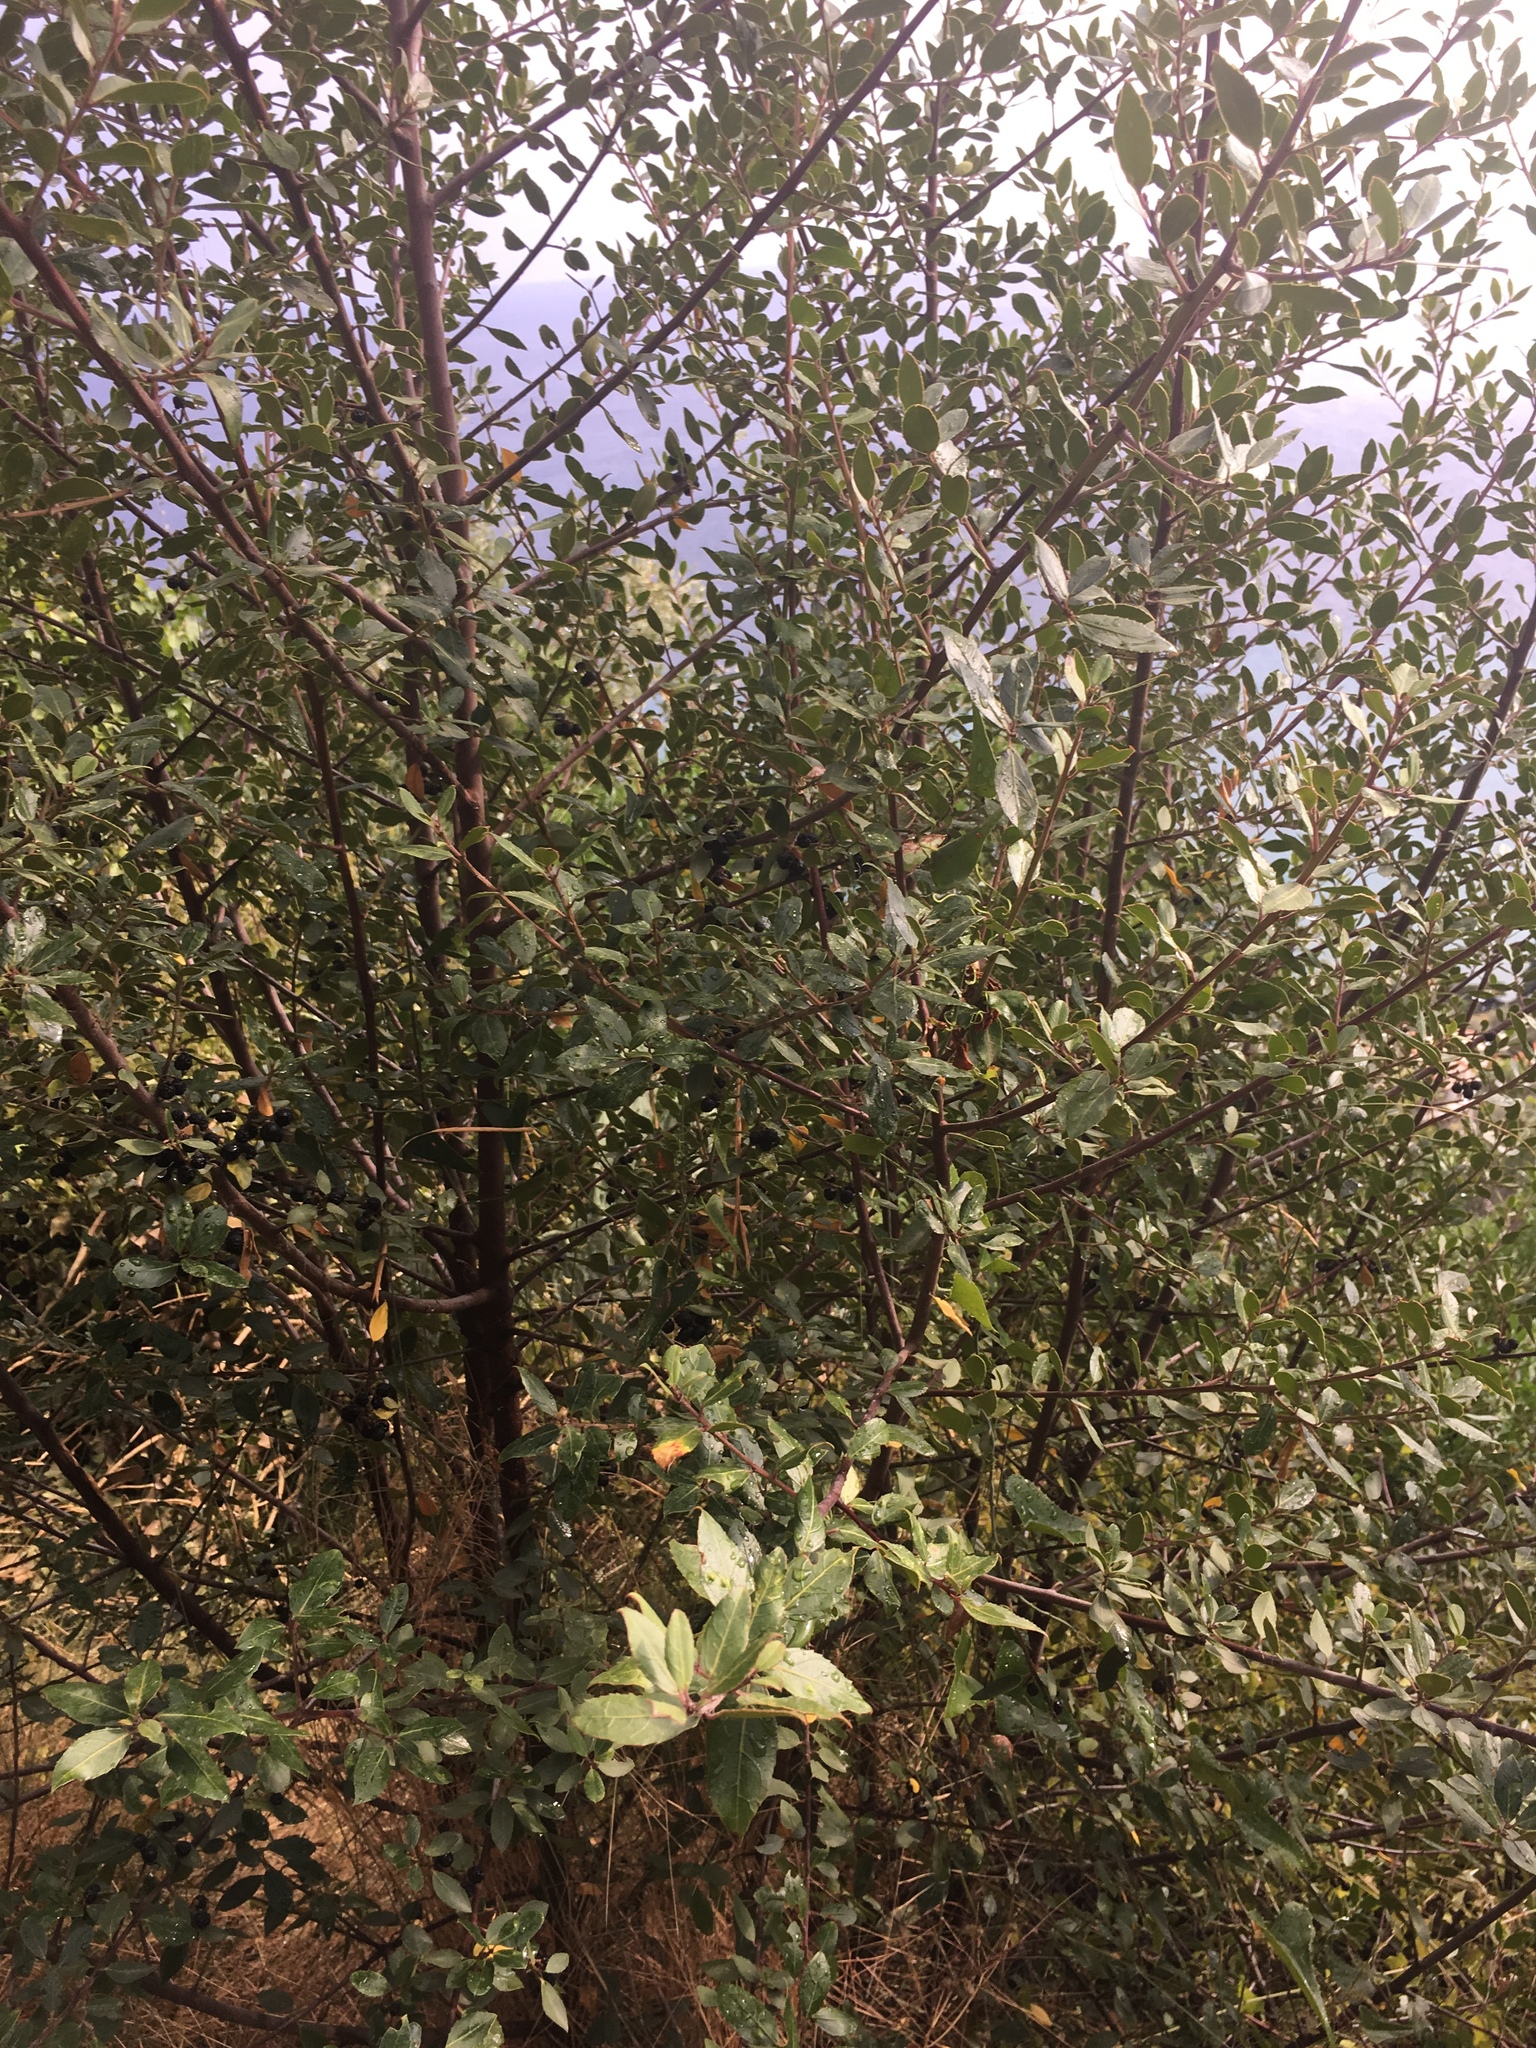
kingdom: Plantae
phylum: Tracheophyta
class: Magnoliopsida
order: Rosales
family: Rhamnaceae
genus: Rhamnus
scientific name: Rhamnus alaternus
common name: Mediterranean buckthorn
